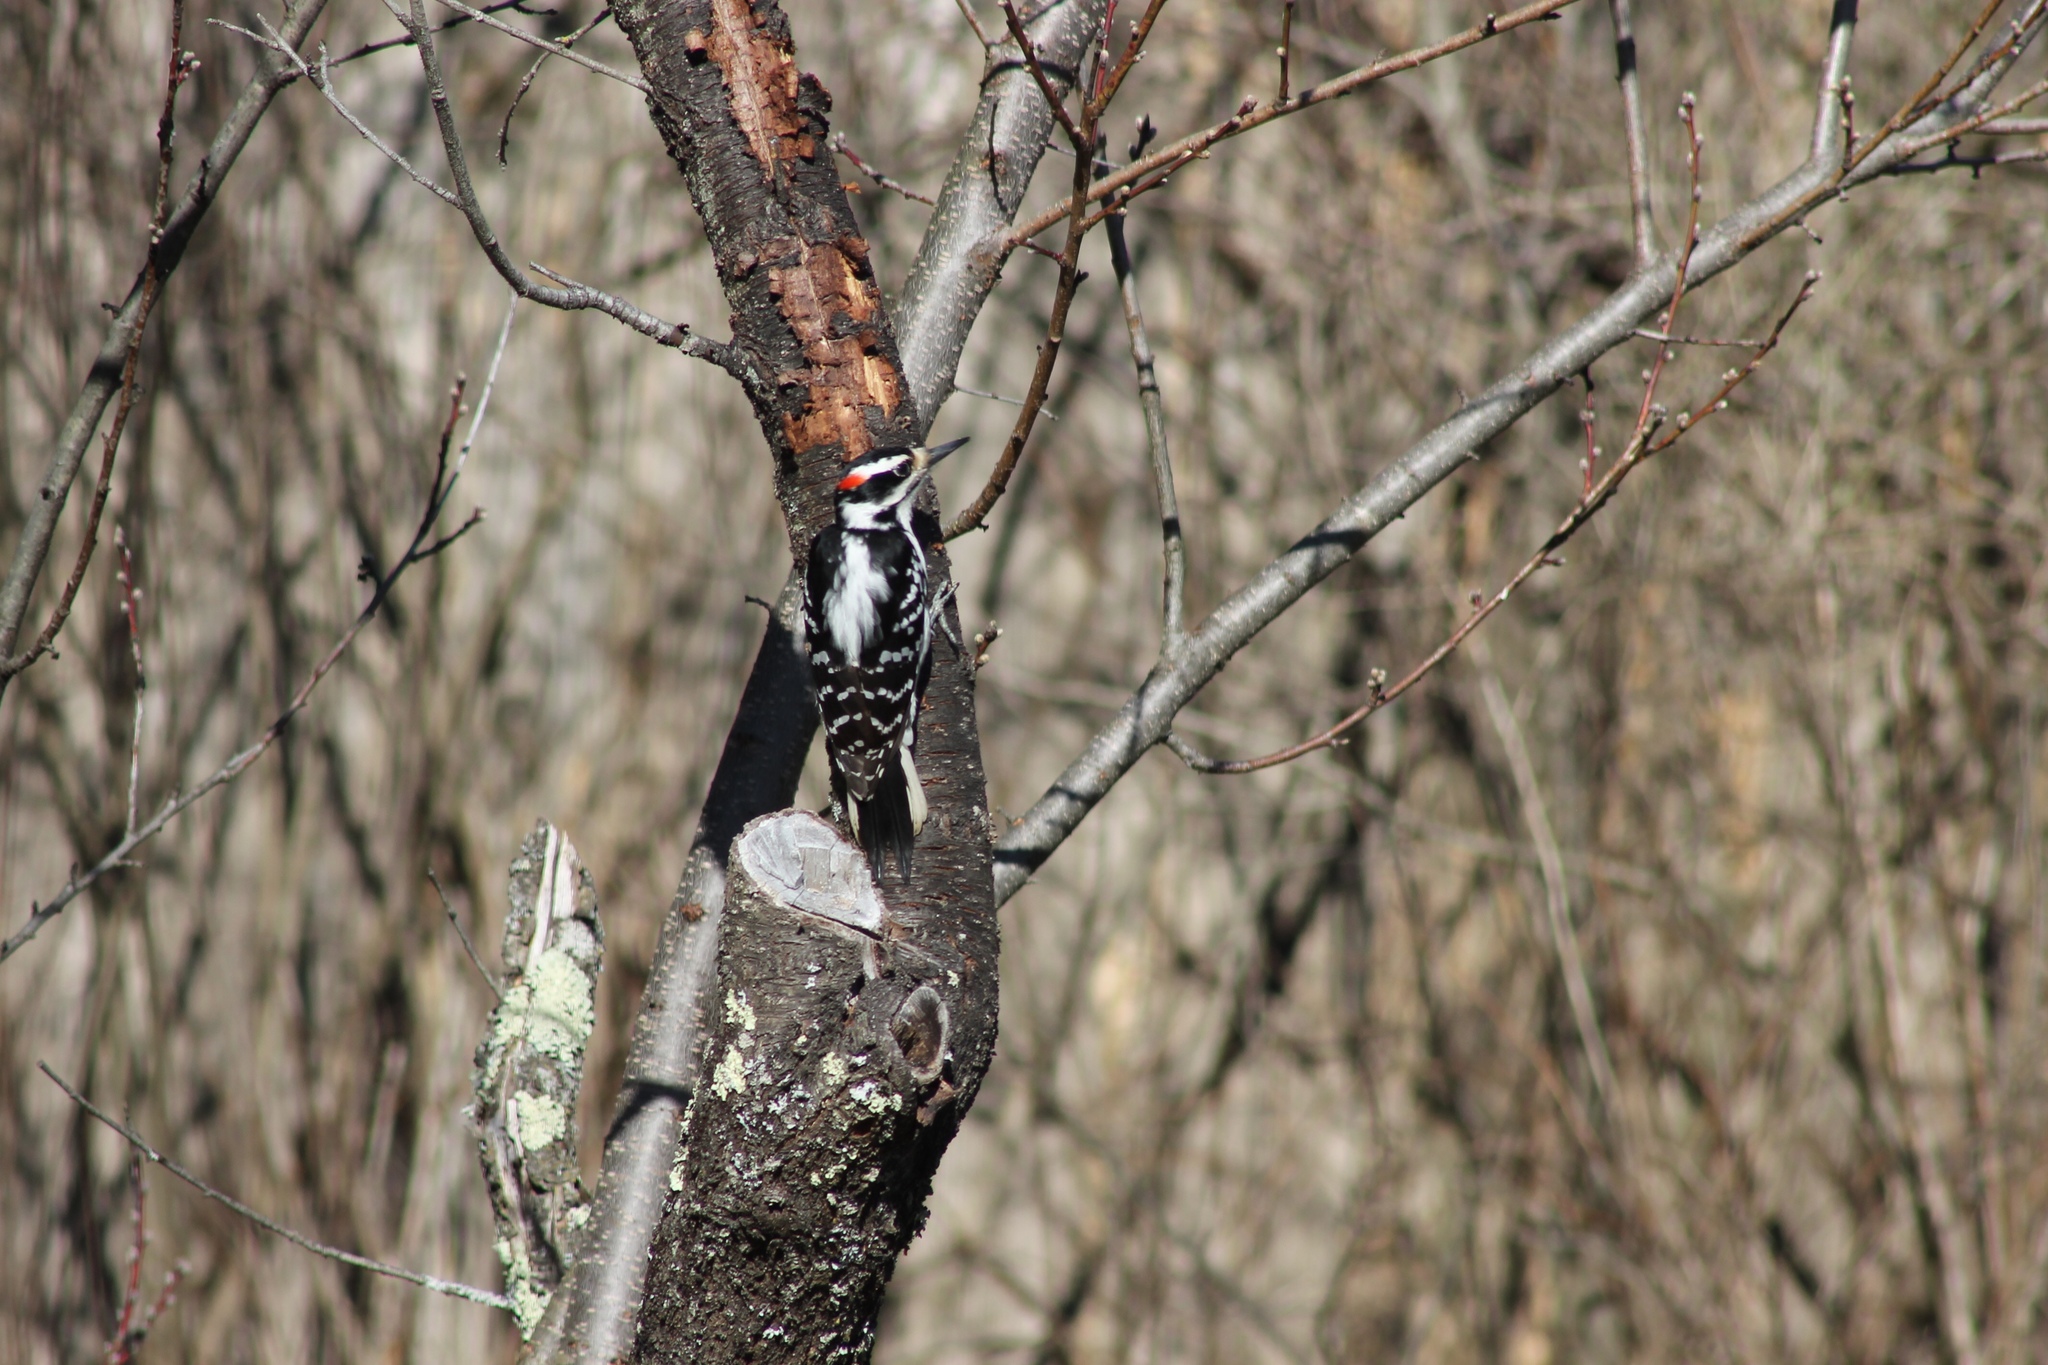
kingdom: Animalia
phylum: Chordata
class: Aves
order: Piciformes
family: Picidae
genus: Leuconotopicus
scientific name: Leuconotopicus villosus
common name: Hairy woodpecker
